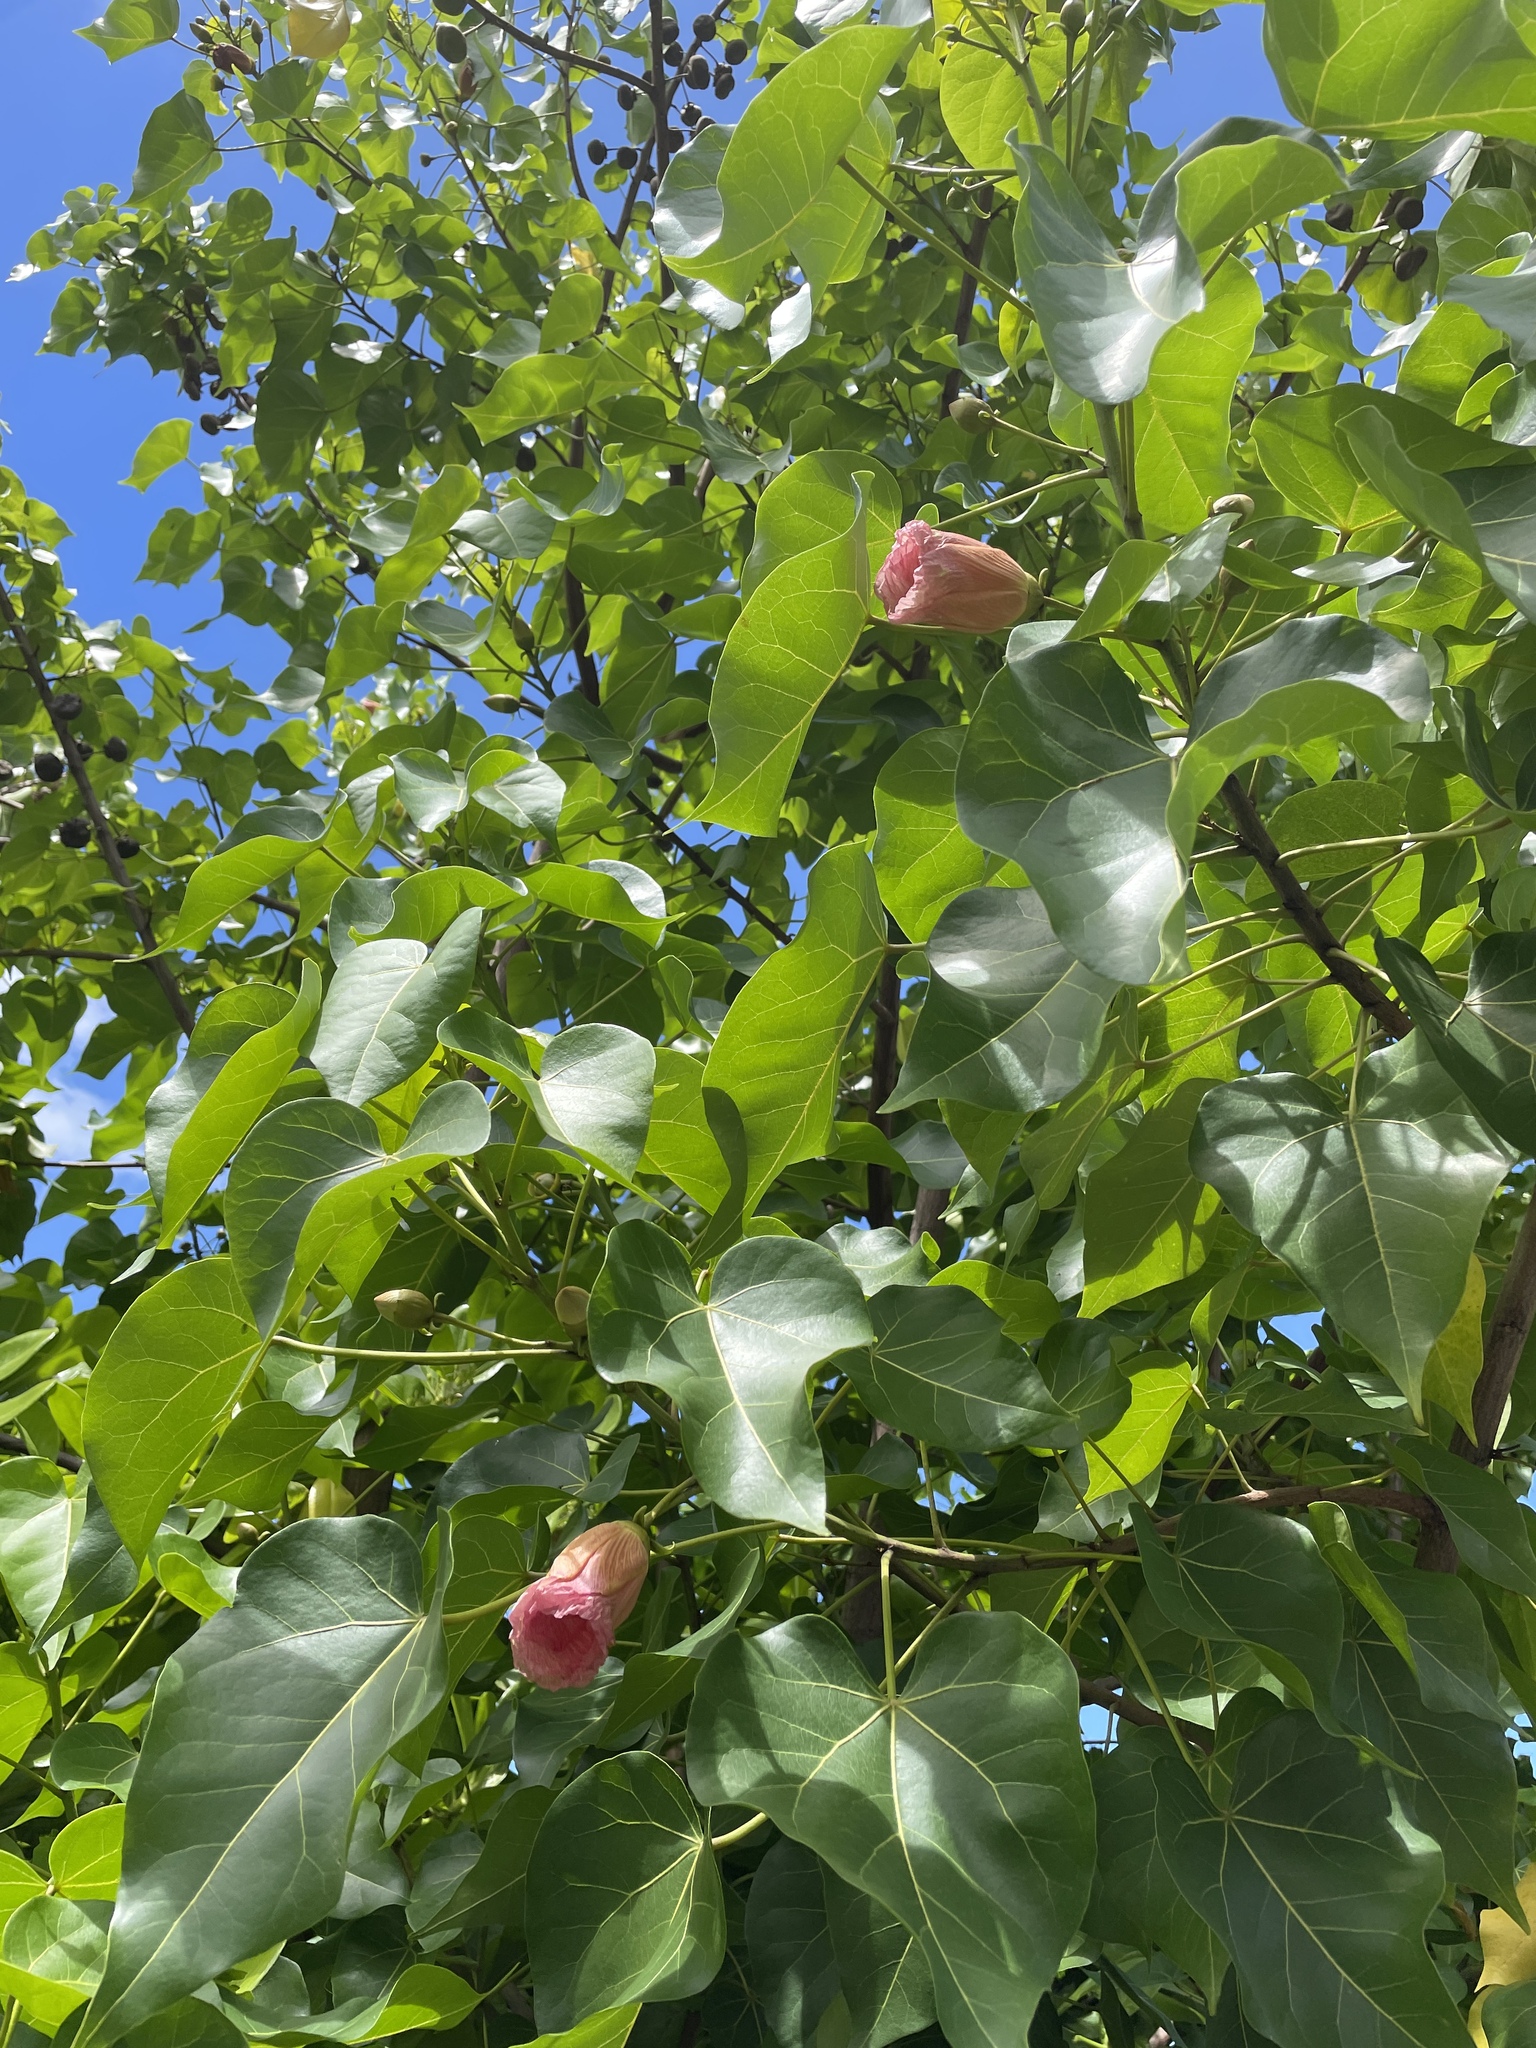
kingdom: Plantae
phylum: Tracheophyta
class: Magnoliopsida
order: Malvales
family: Malvaceae
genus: Thespesia
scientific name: Thespesia populnea
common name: Seaside mahoe
